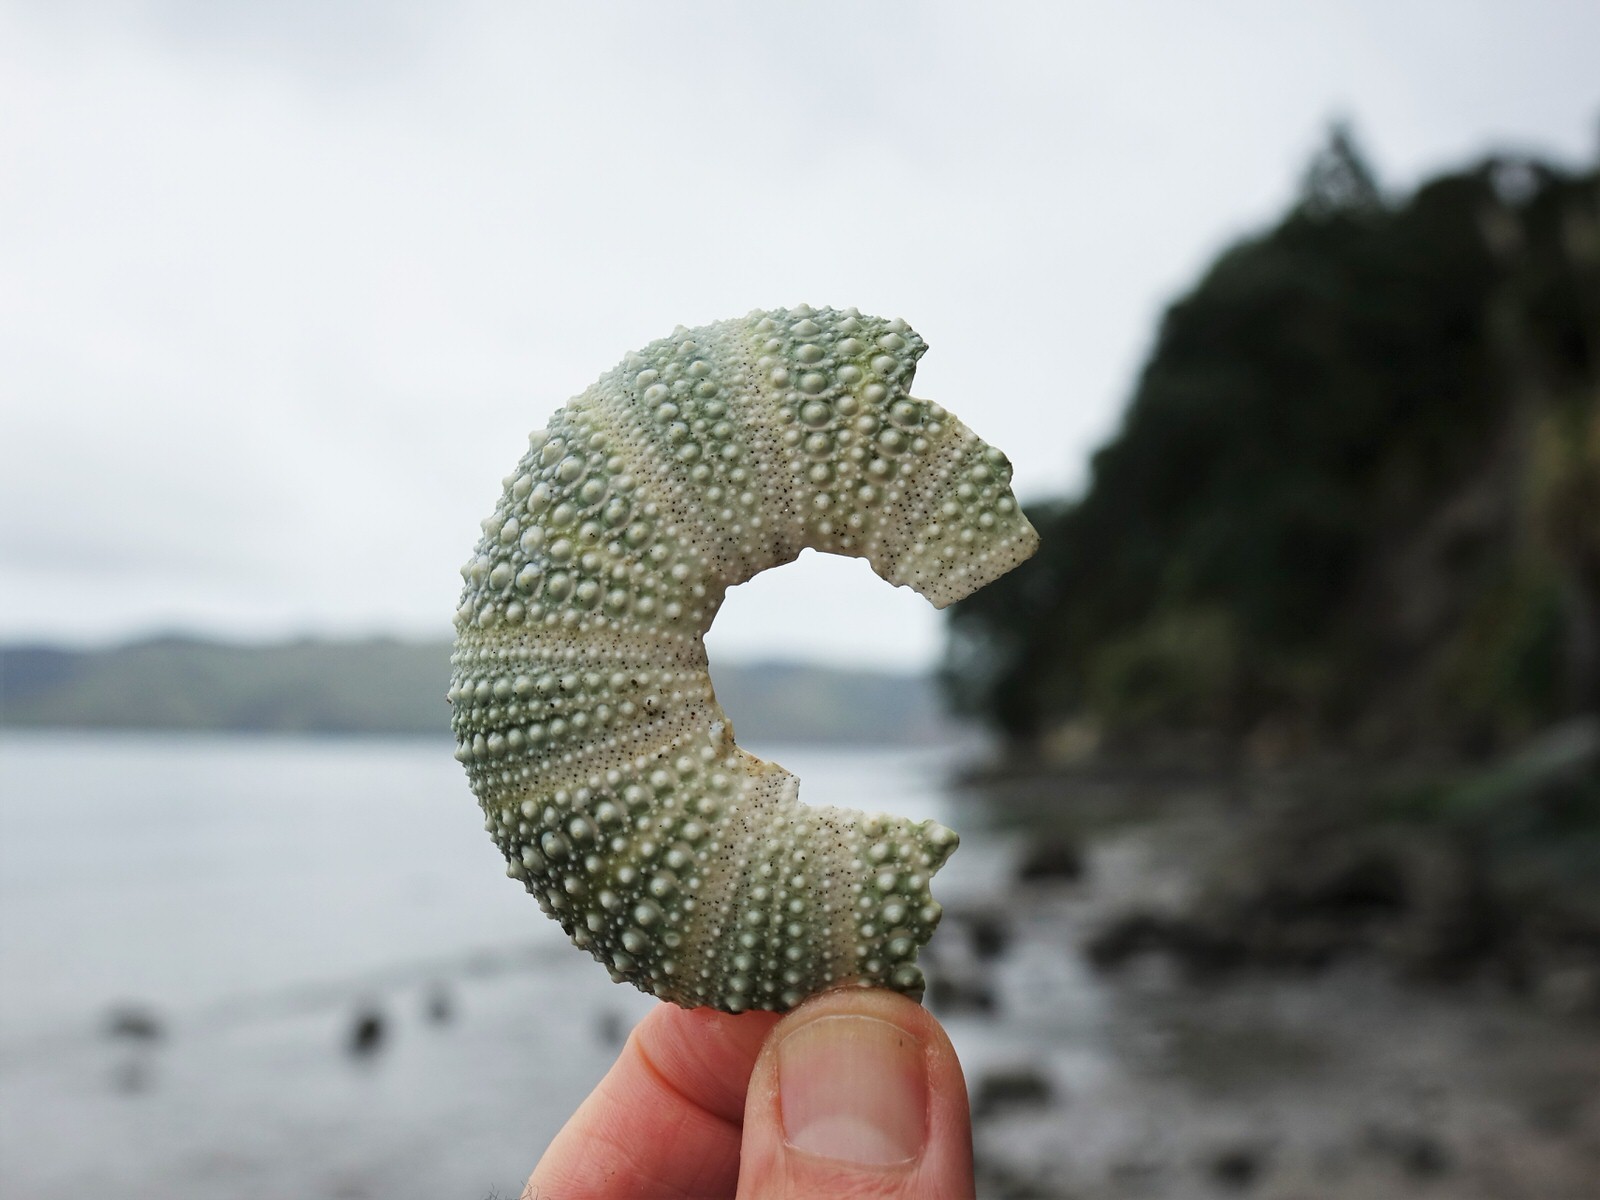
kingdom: Animalia
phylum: Echinodermata
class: Echinoidea
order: Camarodonta
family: Echinometridae
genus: Evechinus
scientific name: Evechinus chloroticus
